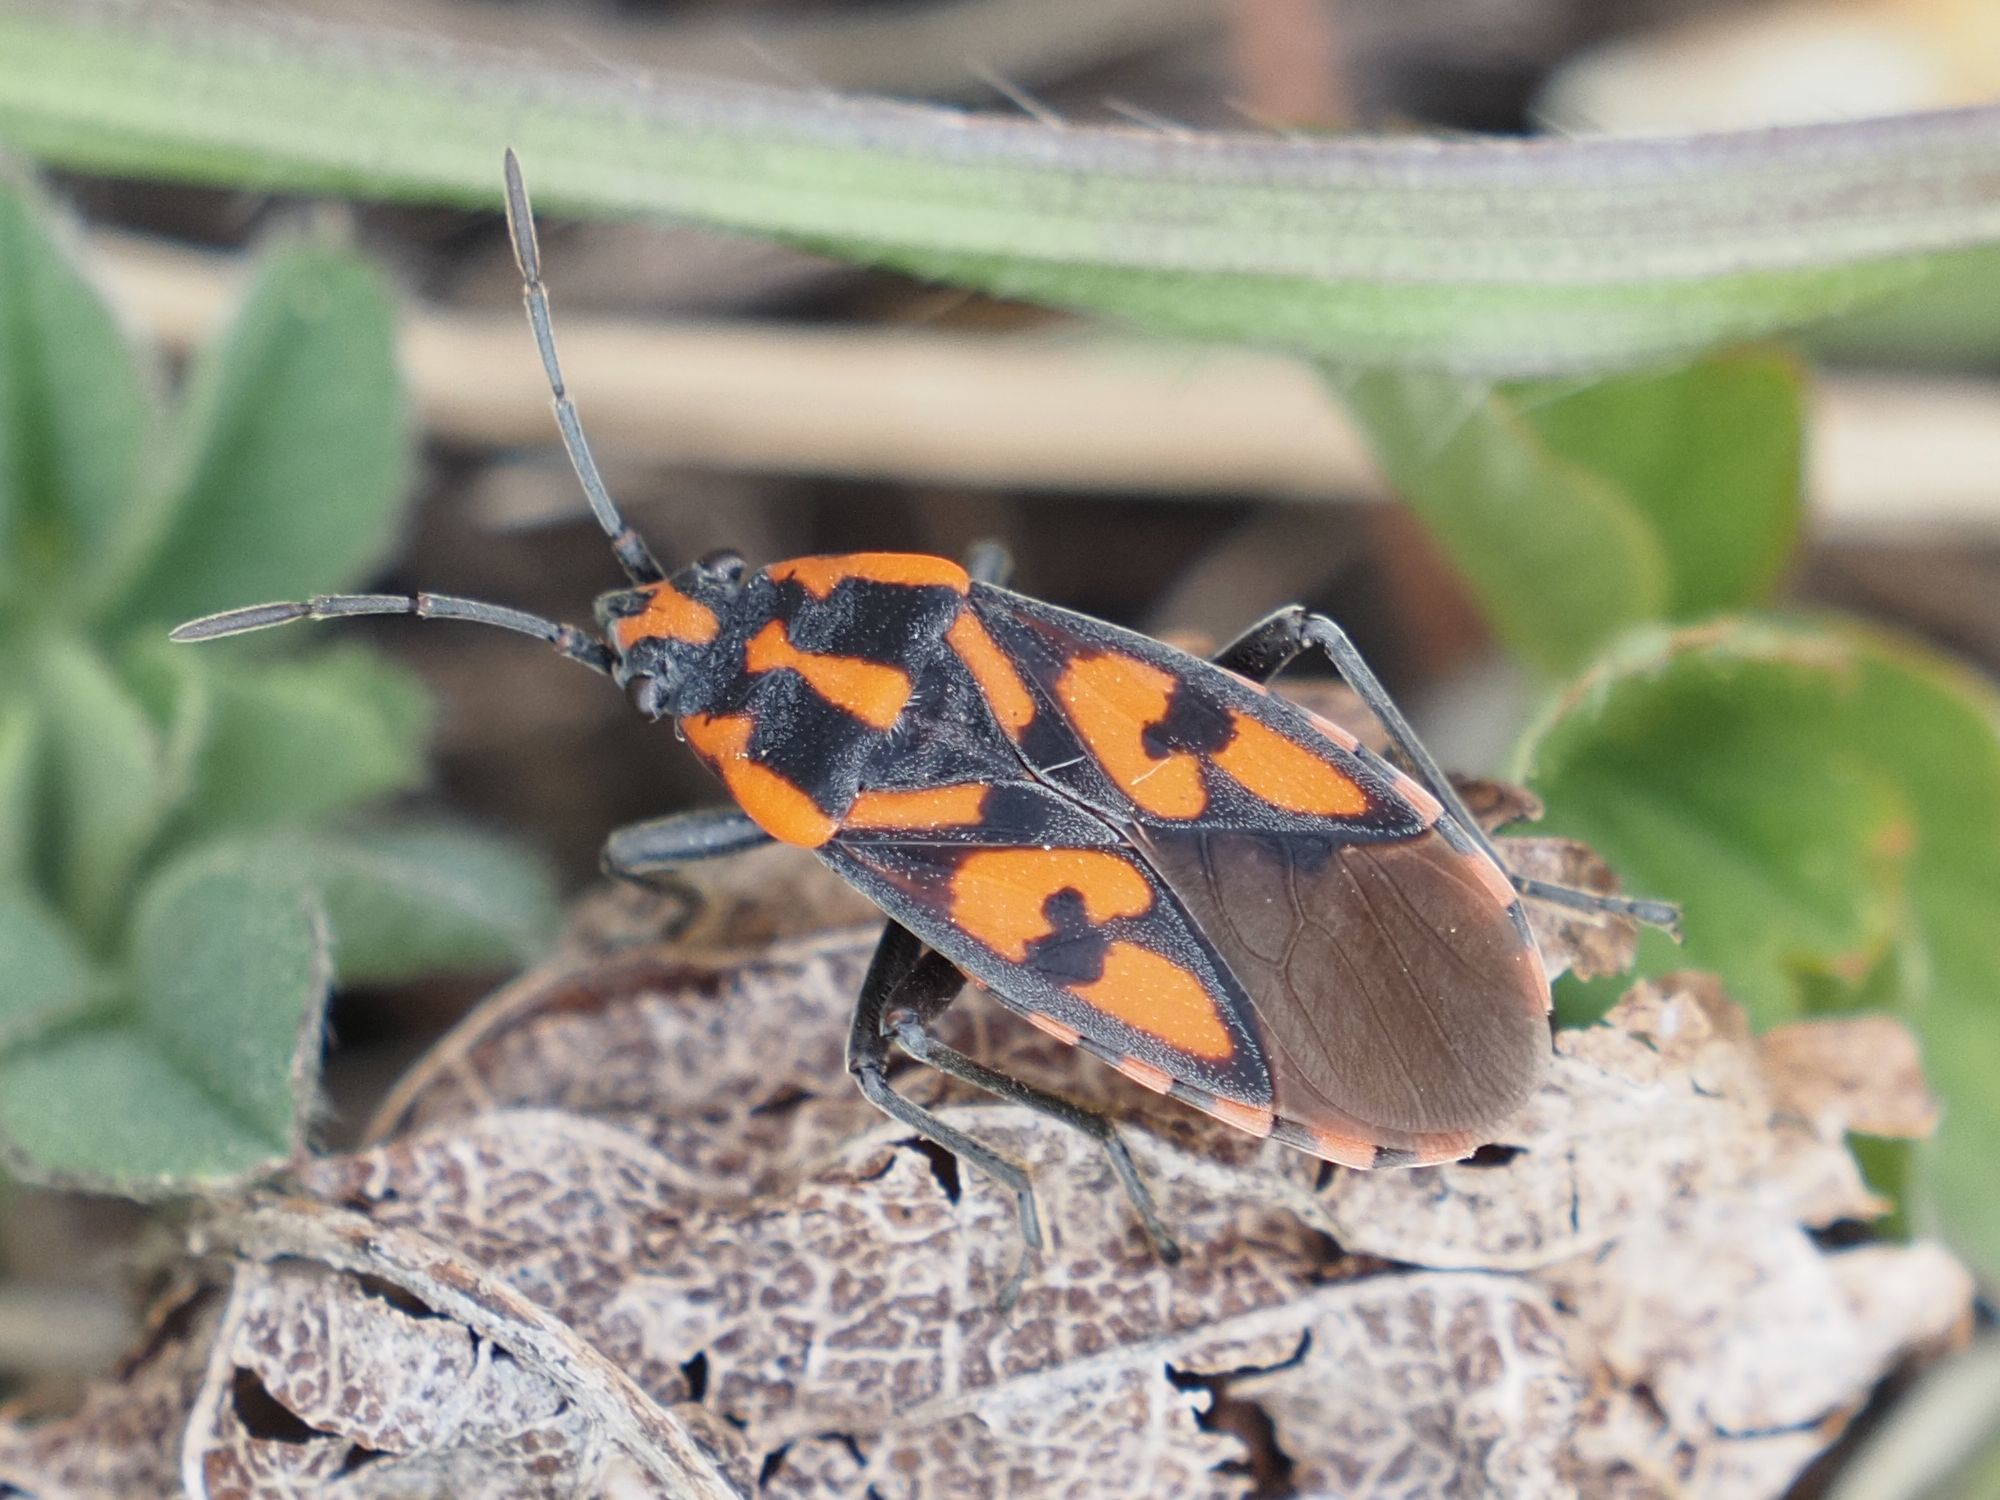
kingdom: Animalia
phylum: Arthropoda
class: Insecta
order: Hemiptera
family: Lygaeidae
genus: Spilostethus
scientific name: Spilostethus saxatilis
